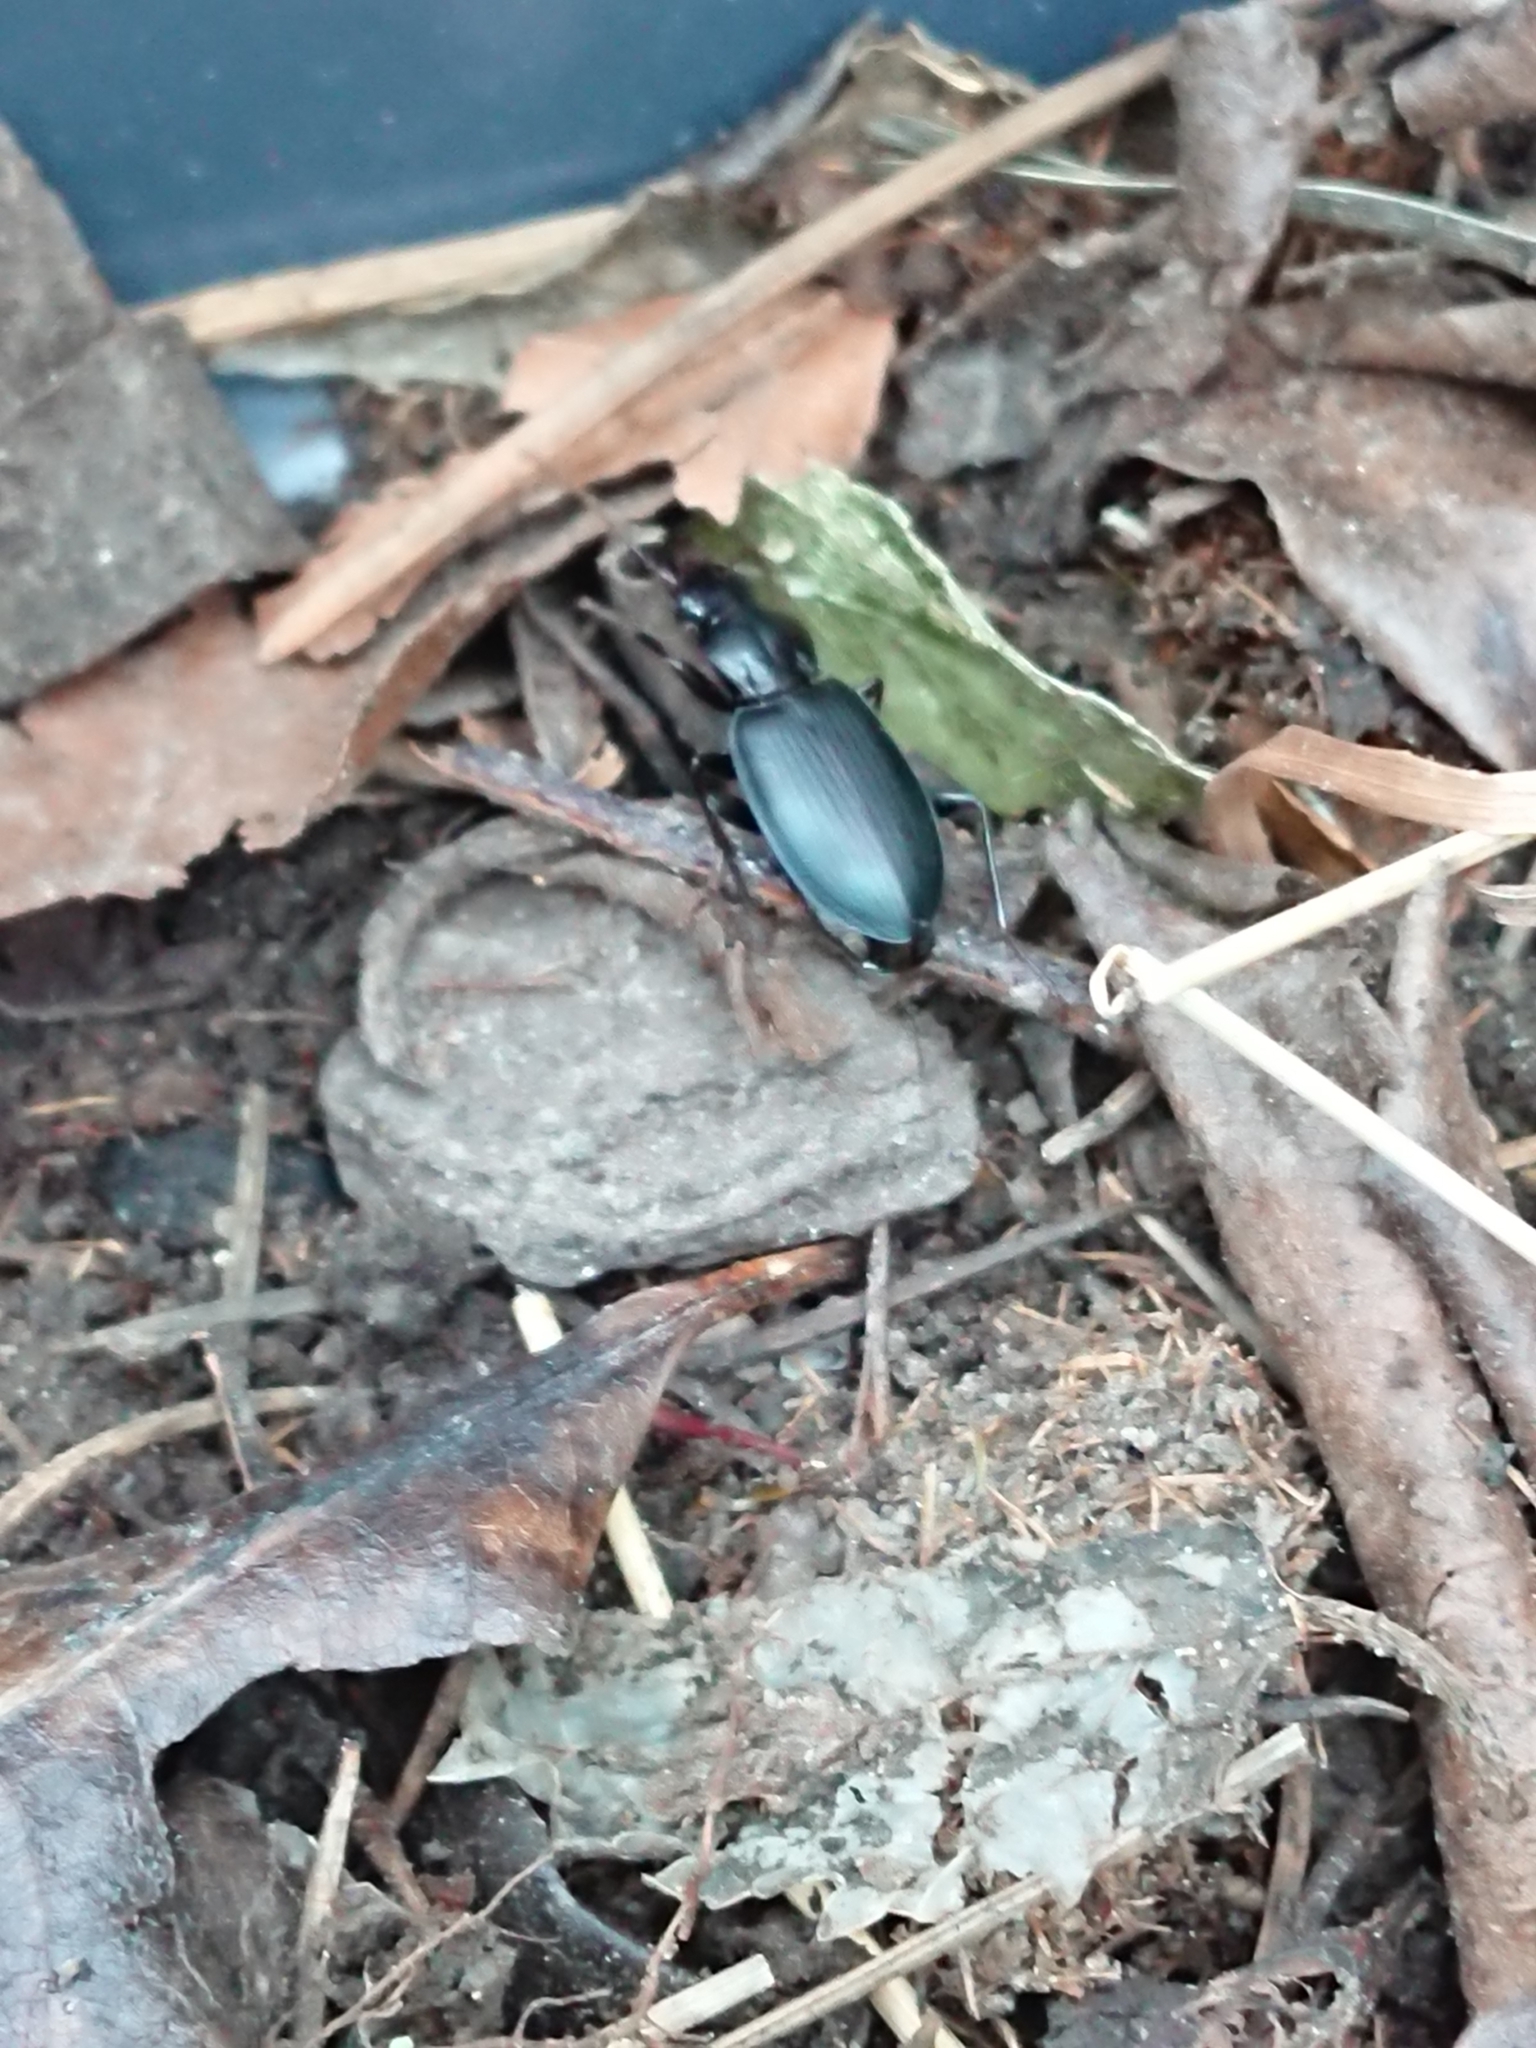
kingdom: Animalia
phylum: Arthropoda
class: Insecta
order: Coleoptera
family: Carabidae
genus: Laemostenus
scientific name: Laemostenus complanatus
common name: Cosmopolitan ground beetle
